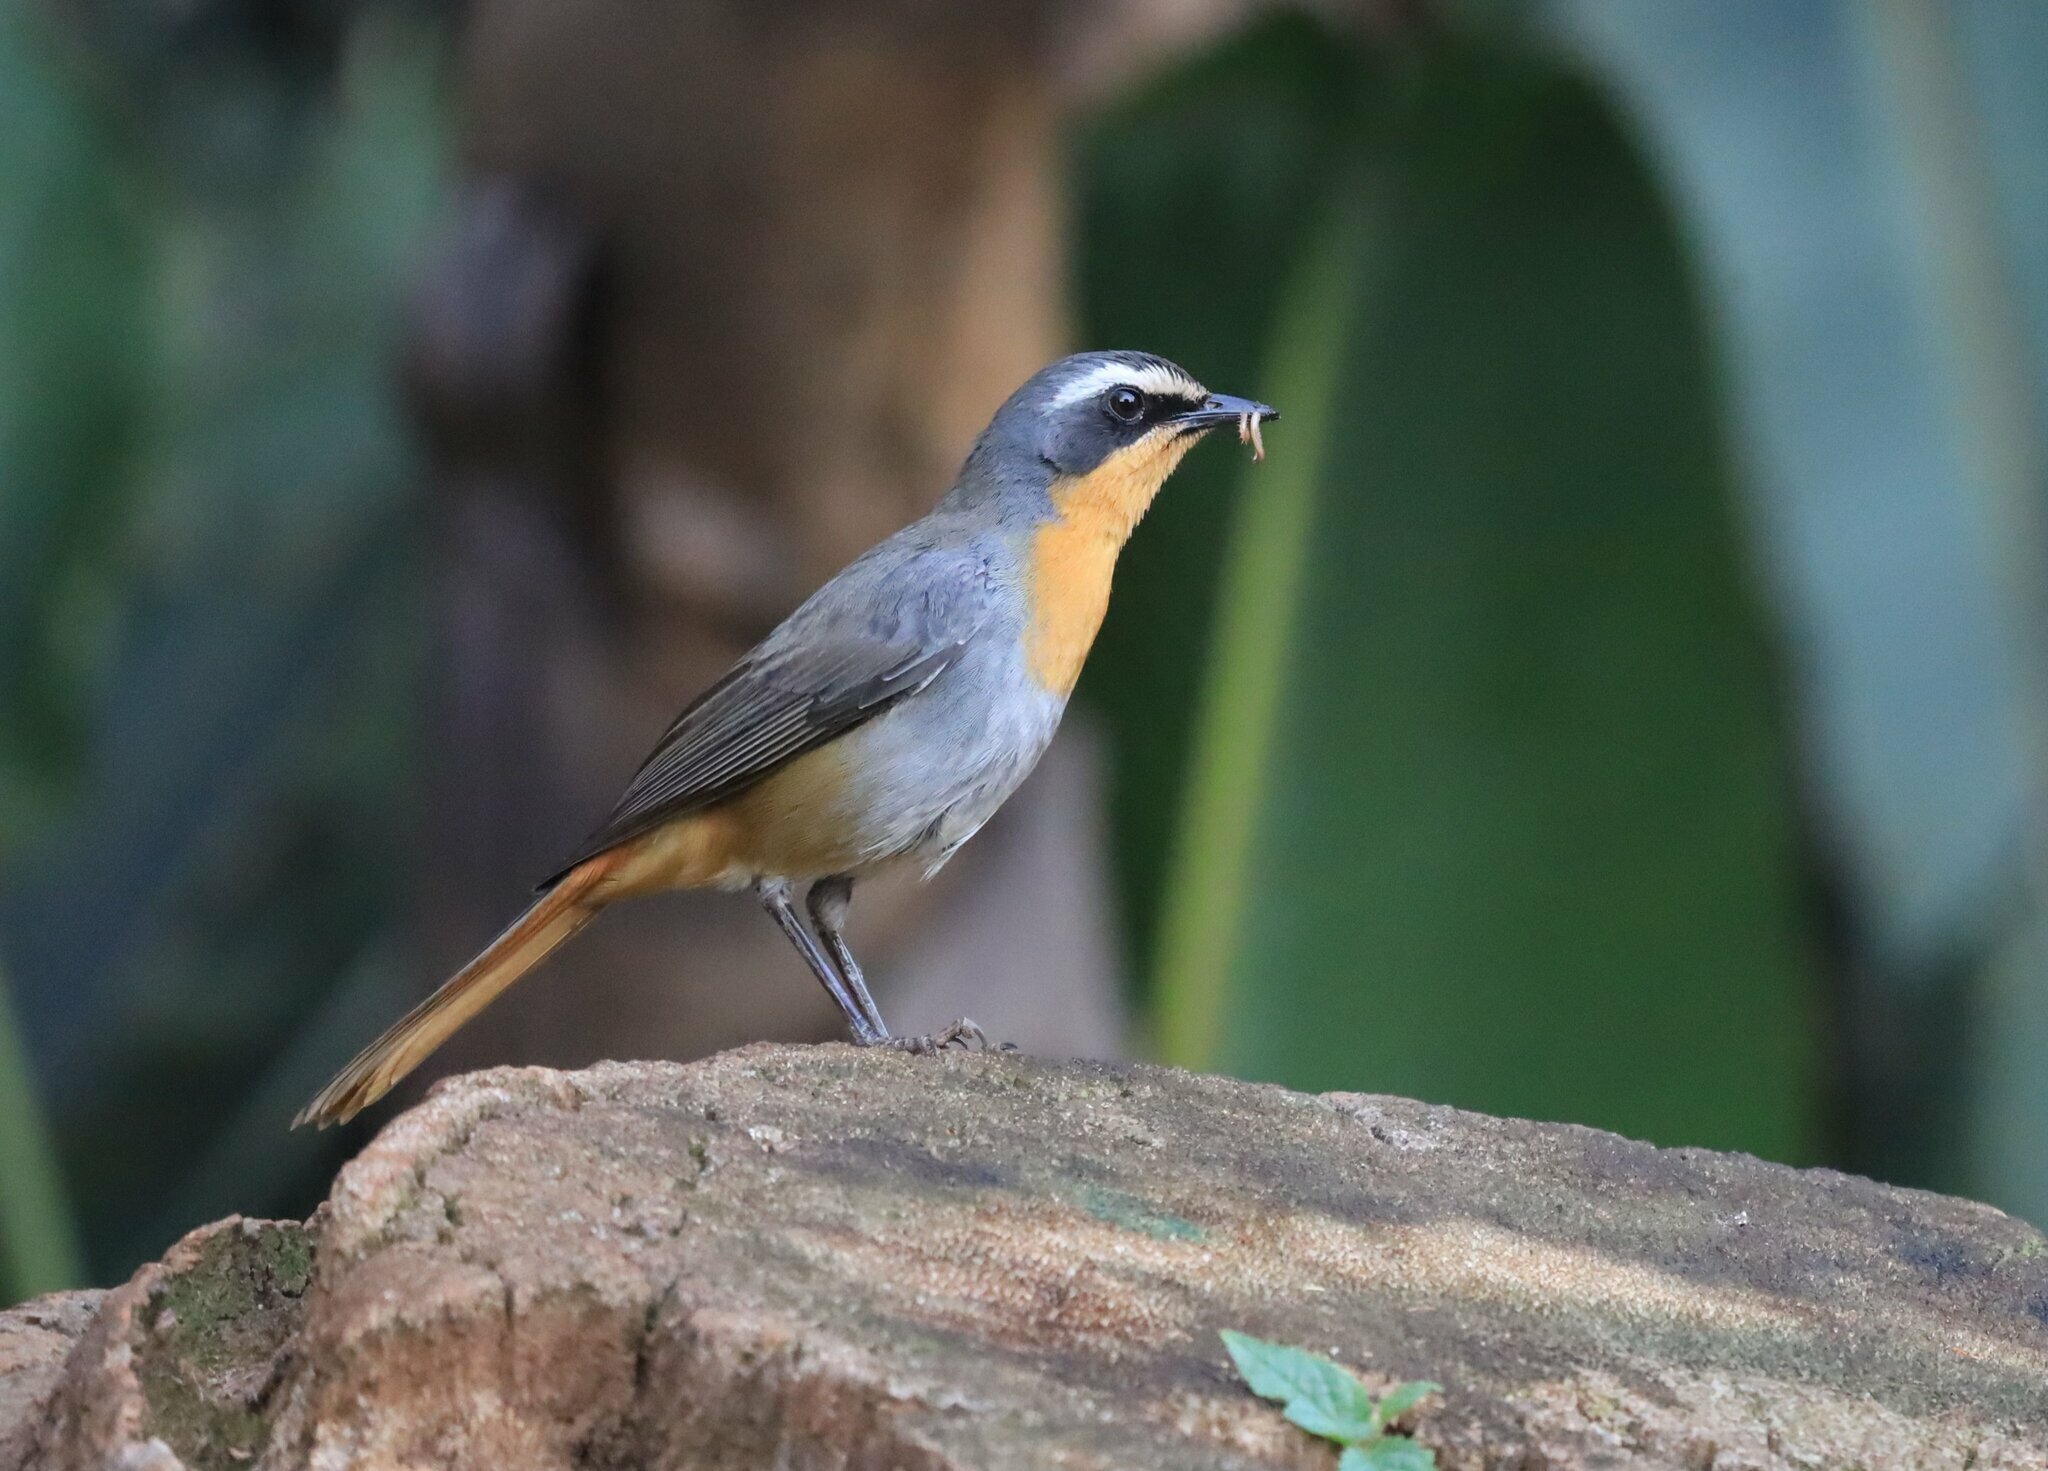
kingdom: Animalia
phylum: Chordata
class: Aves
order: Passeriformes
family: Muscicapidae
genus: Cossypha
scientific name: Cossypha caffra
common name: Cape robin-chat
